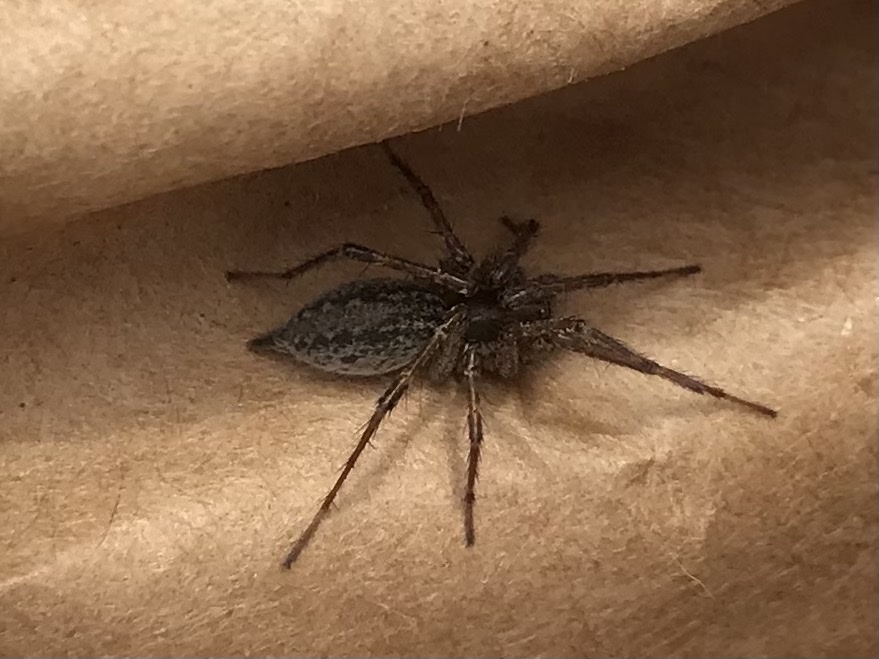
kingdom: Animalia
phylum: Arthropoda
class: Arachnida
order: Araneae
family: Agelenidae
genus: Agelenopsis
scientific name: Agelenopsis
